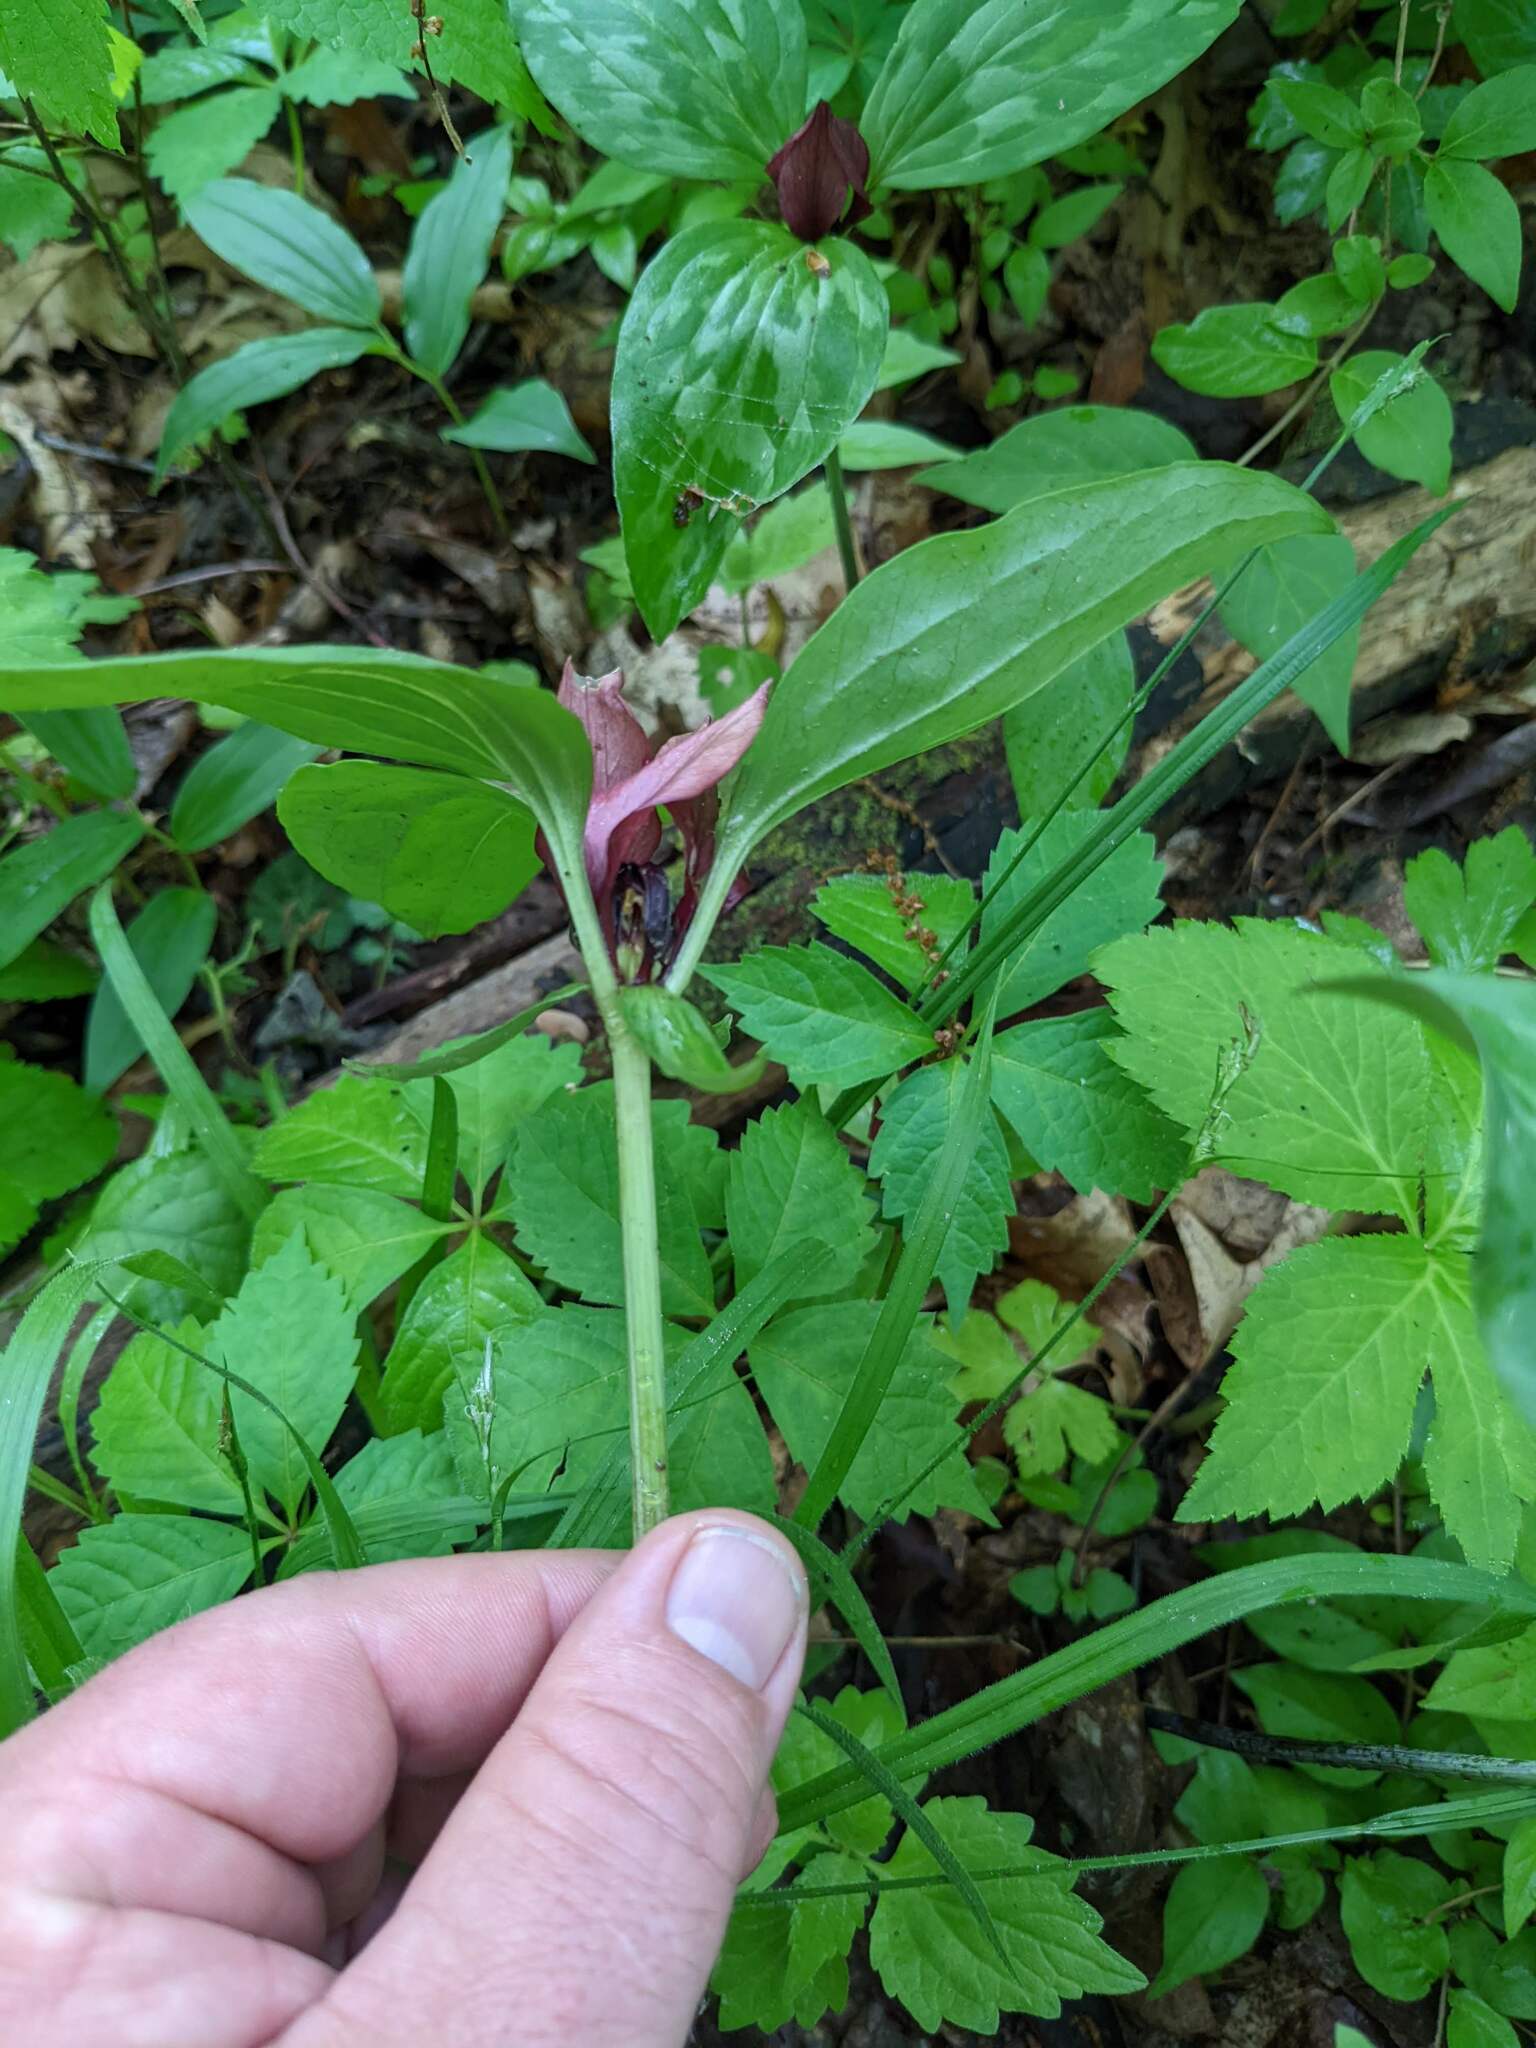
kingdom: Plantae
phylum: Tracheophyta
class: Liliopsida
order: Liliales
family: Melanthiaceae
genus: Trillium
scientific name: Trillium recurvatum
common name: Bloody butcher
